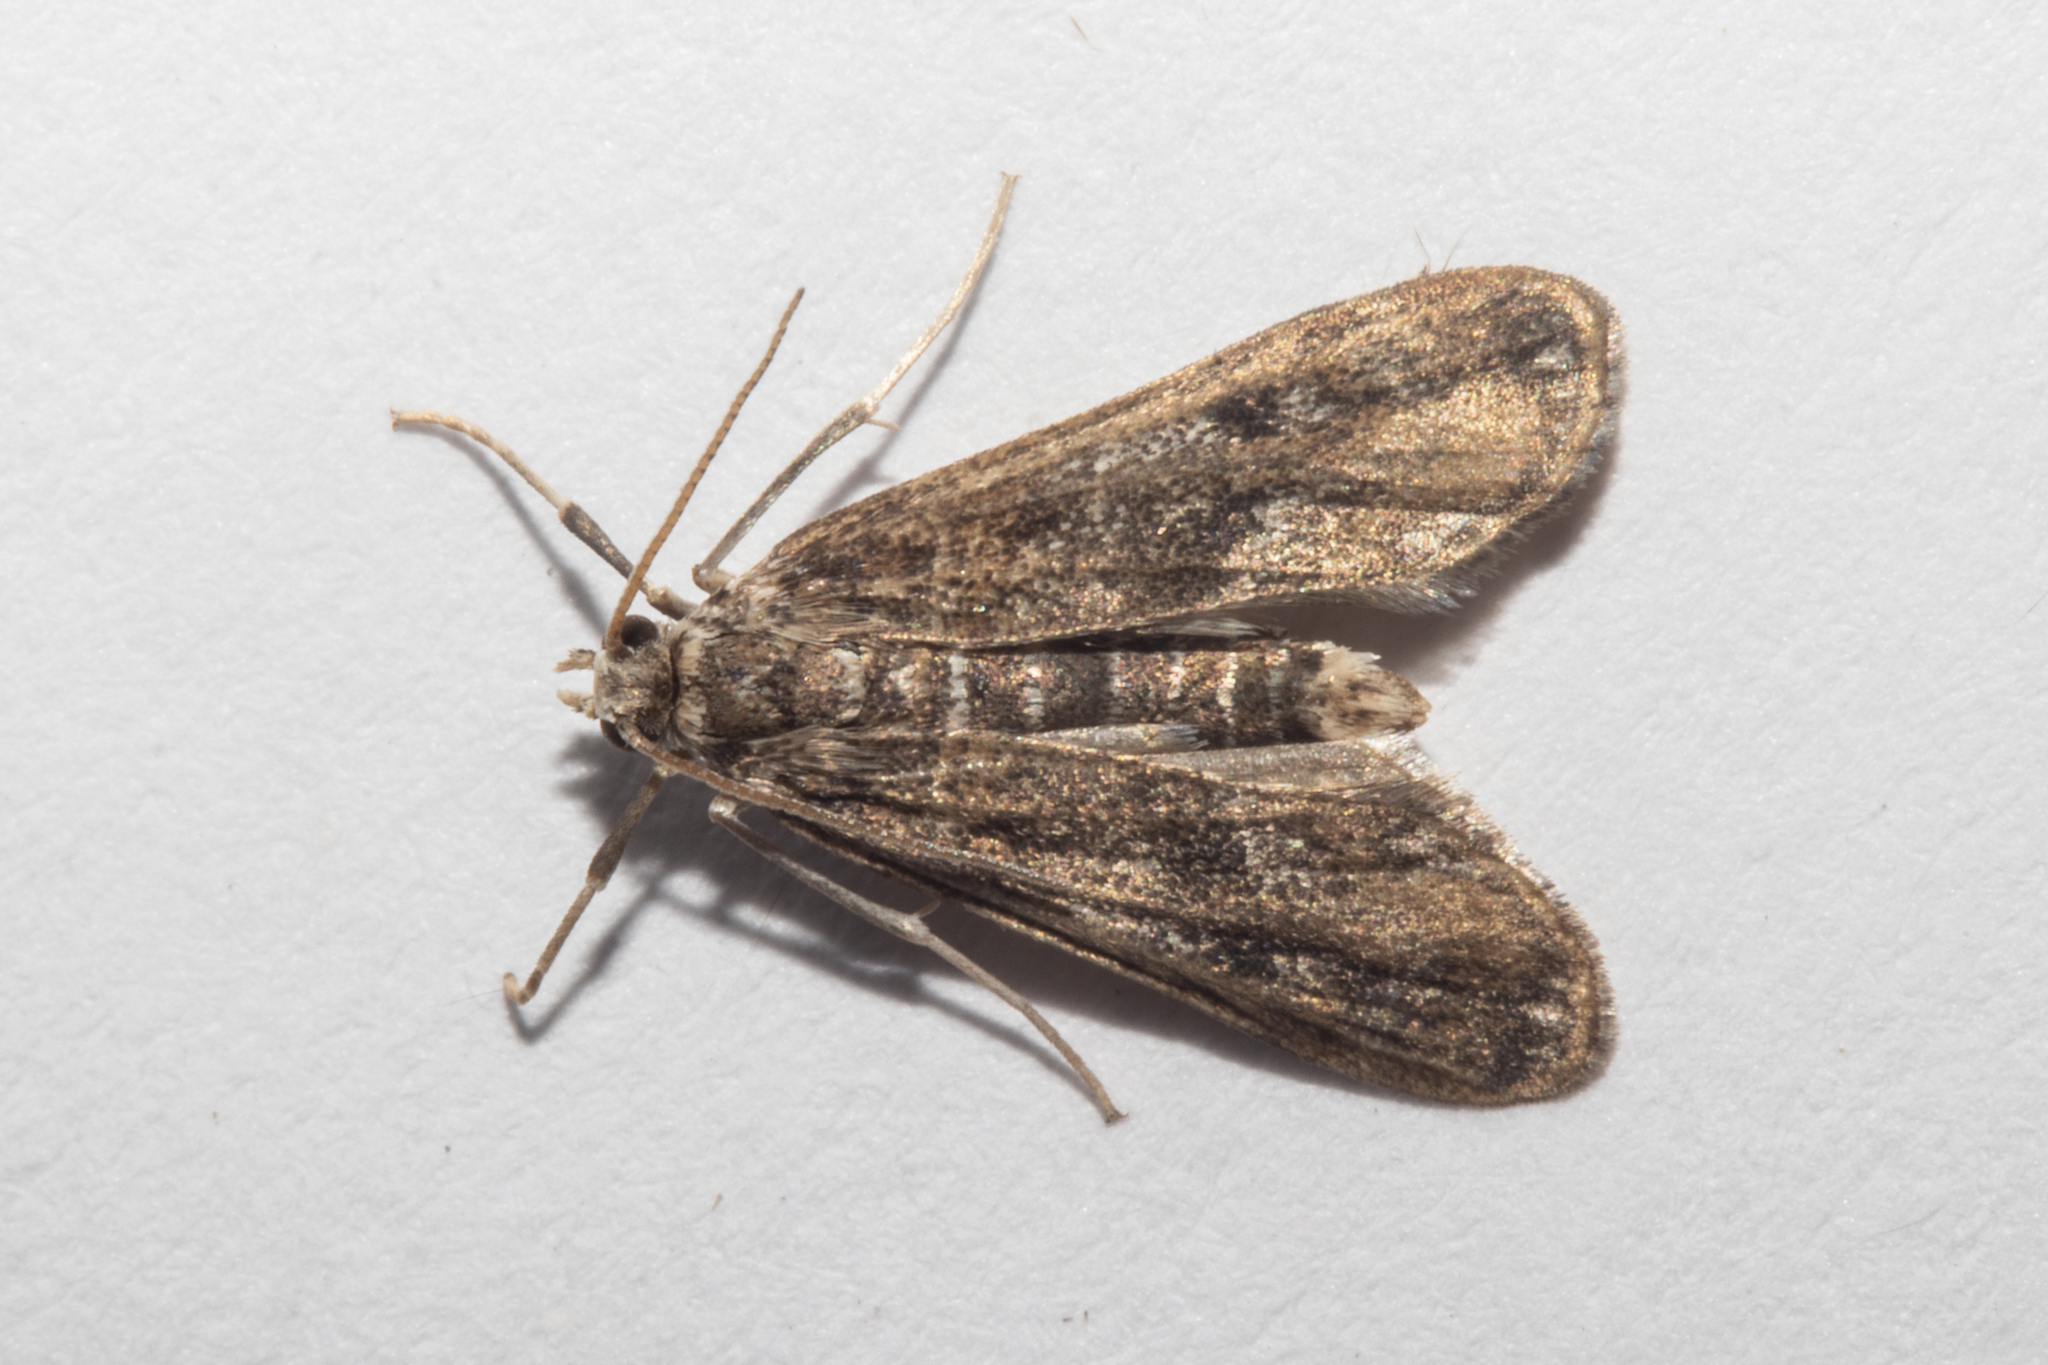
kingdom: Animalia
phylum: Arthropoda
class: Insecta
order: Lepidoptera
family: Crambidae
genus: Hygraula
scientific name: Hygraula nitens
